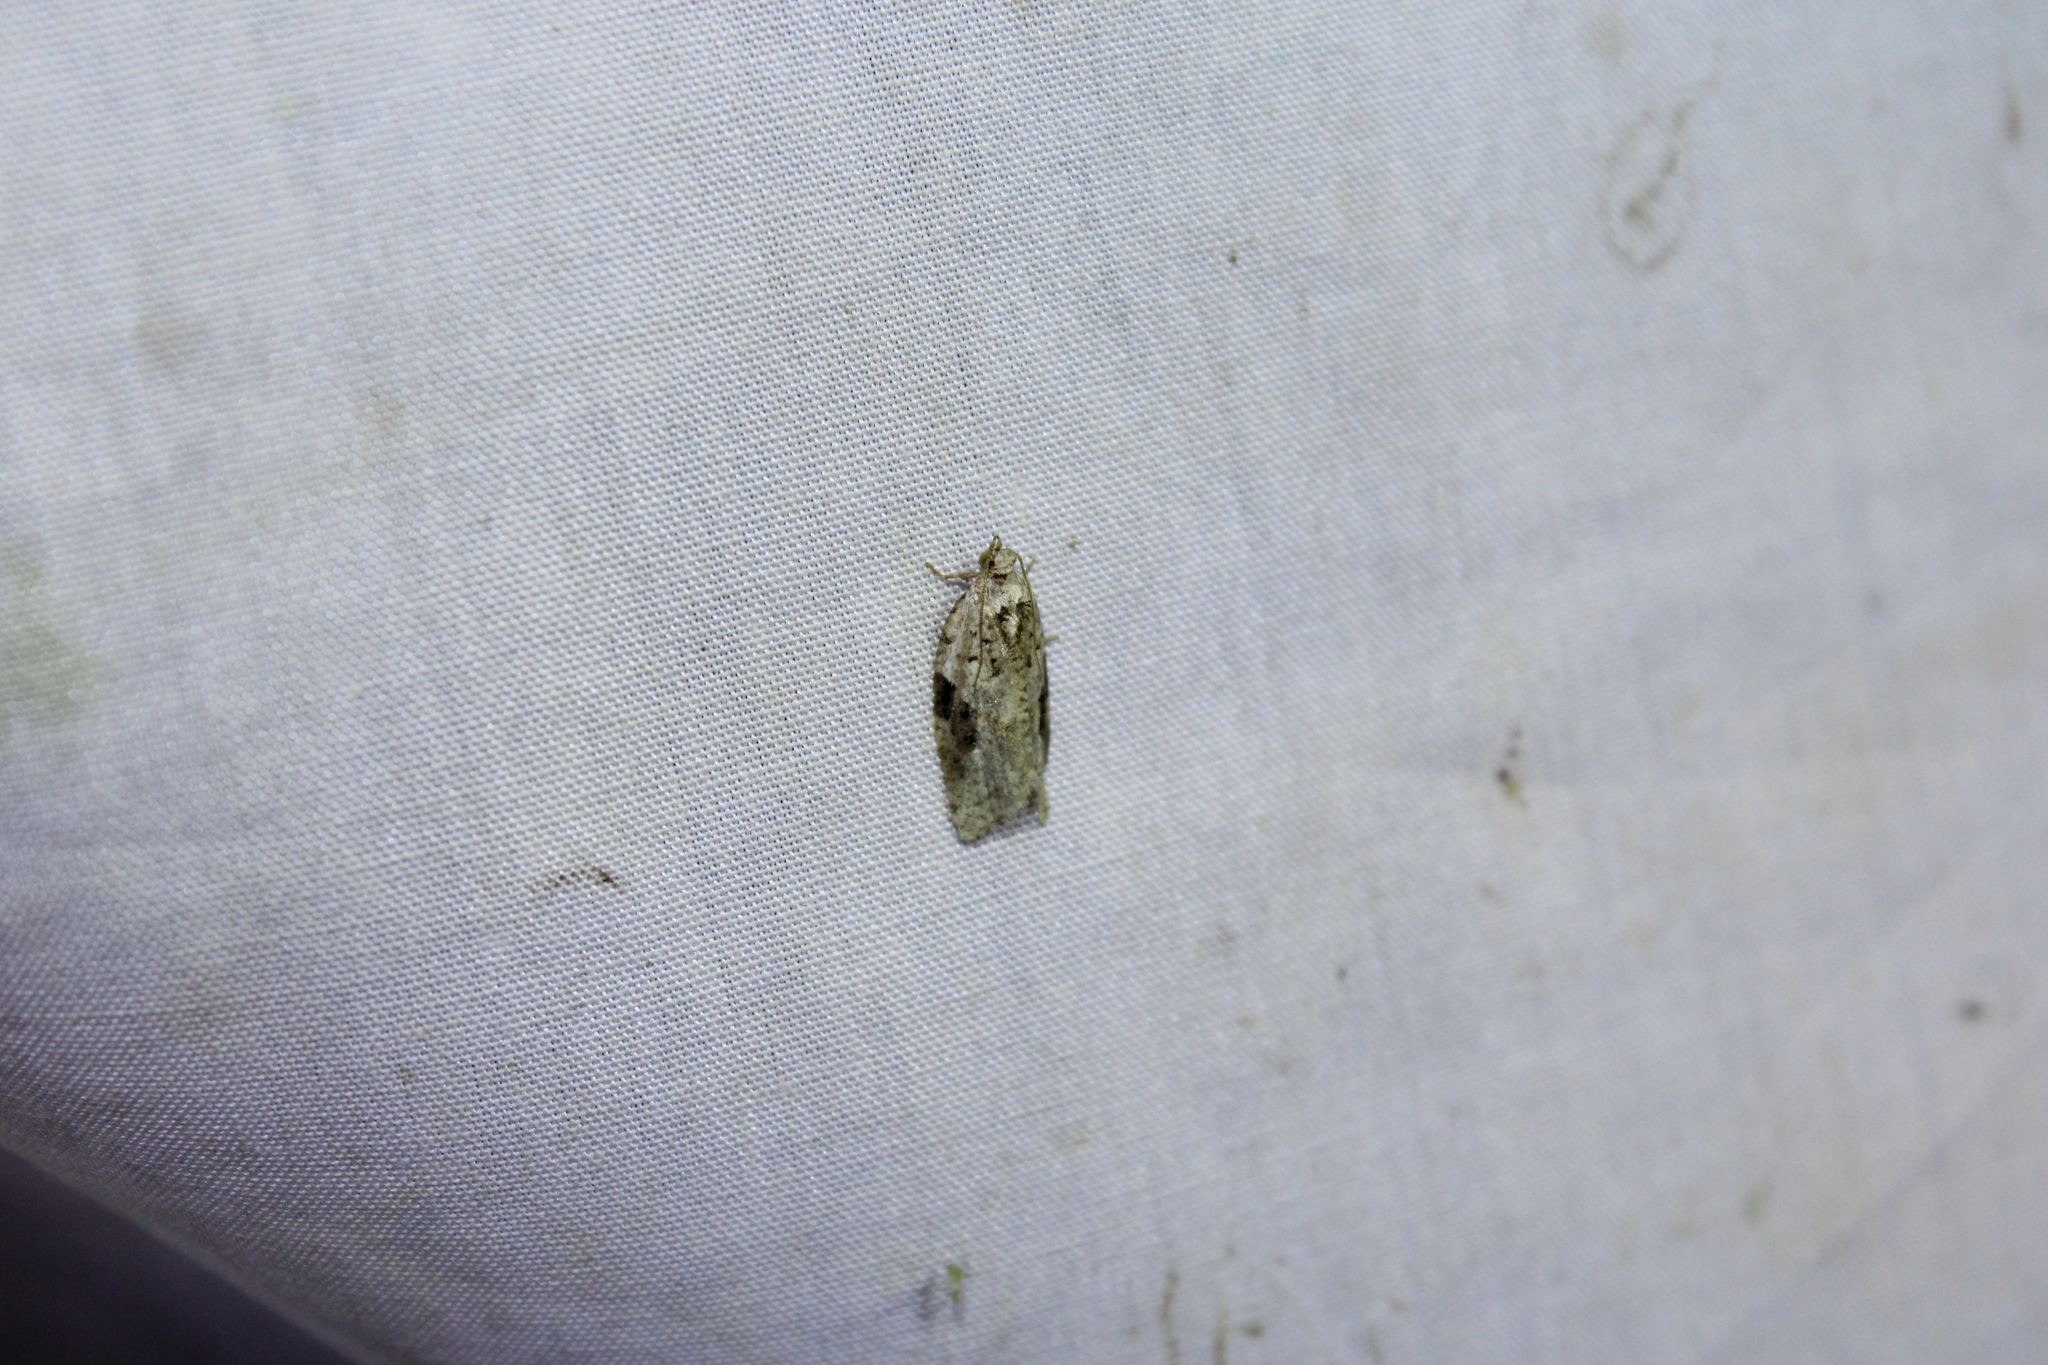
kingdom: Animalia
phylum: Arthropoda
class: Insecta
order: Lepidoptera
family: Tortricidae
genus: Argyrotaenia
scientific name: Argyrotaenia mariana
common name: Gray-banded leafroller moth
